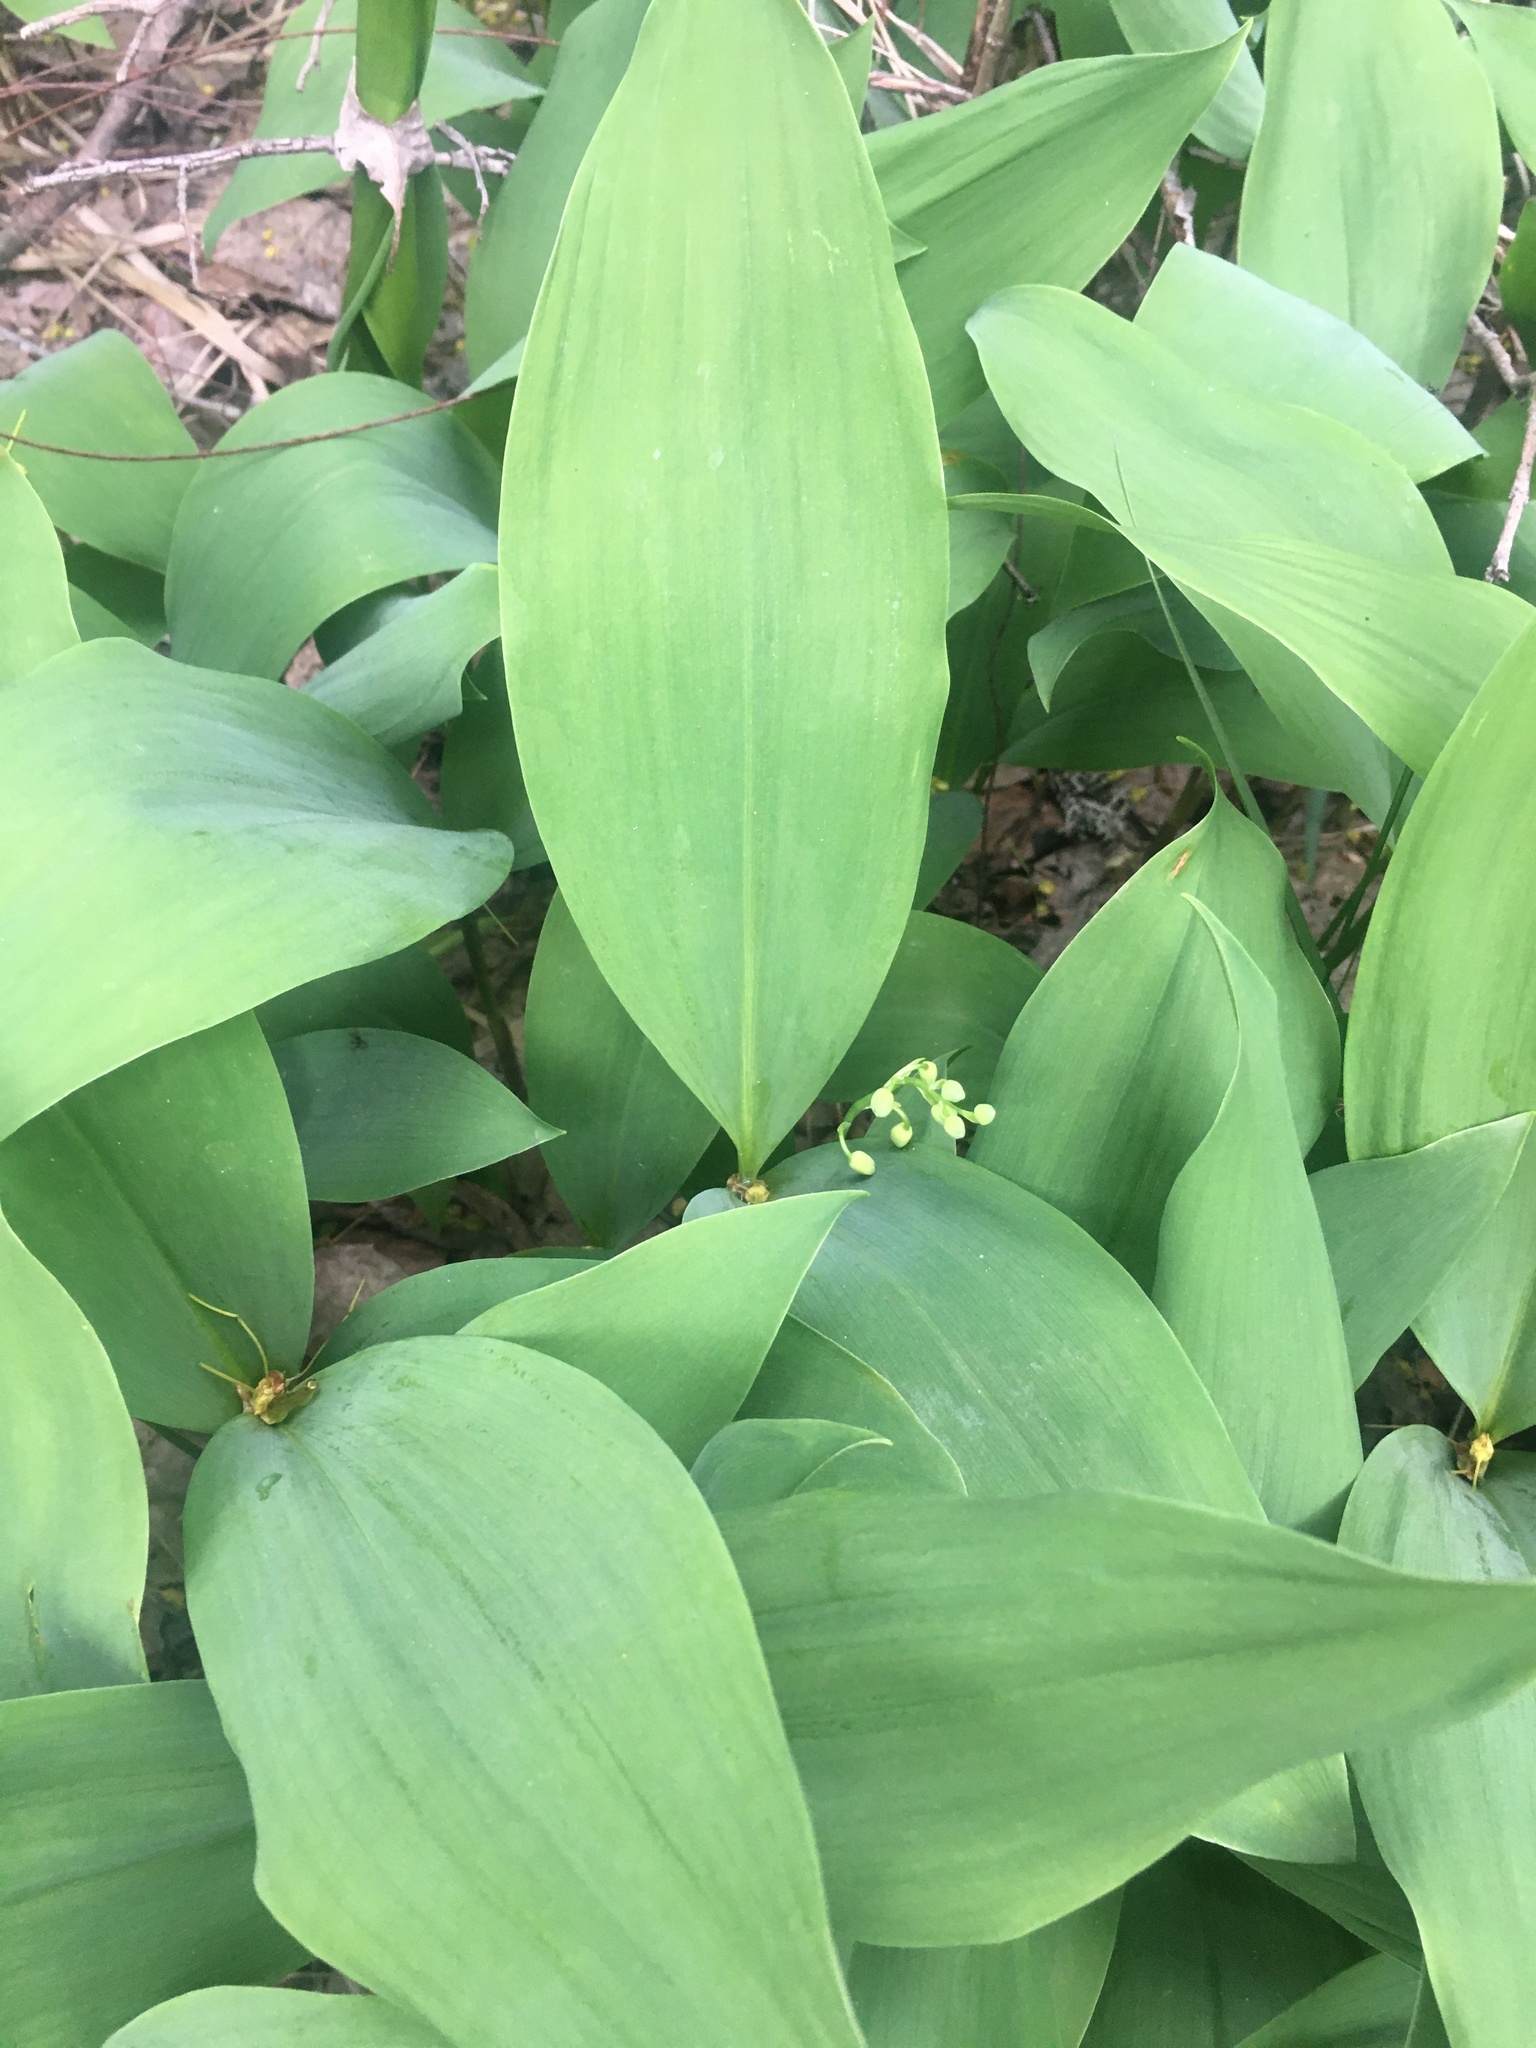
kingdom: Plantae
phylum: Tracheophyta
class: Liliopsida
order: Asparagales
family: Asparagaceae
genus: Convallaria
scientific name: Convallaria majalis
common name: Lily-of-the-valley
